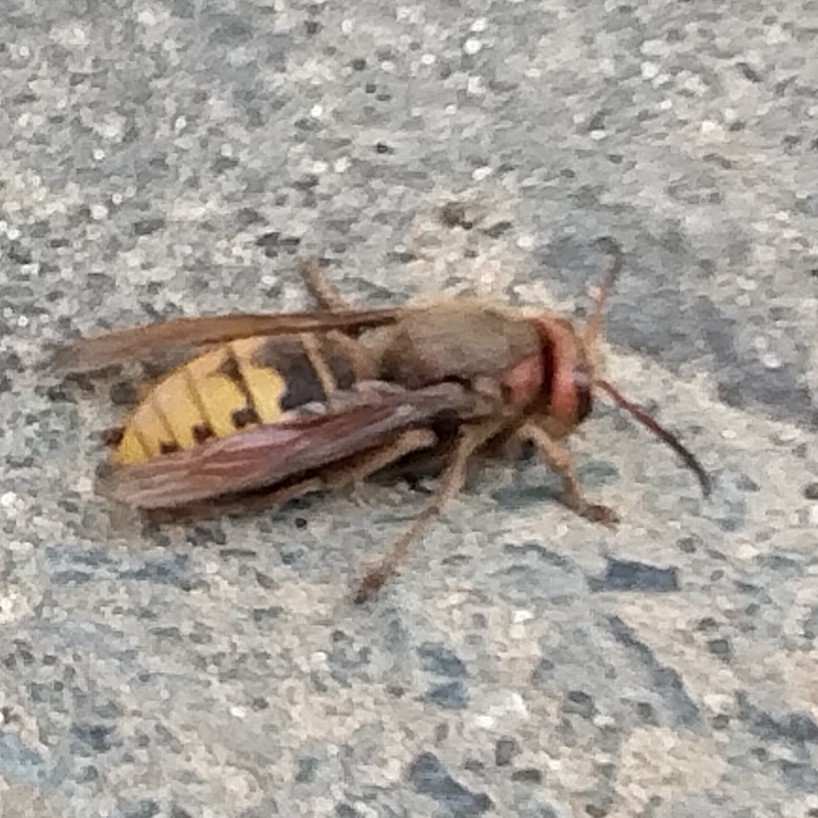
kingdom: Animalia
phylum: Arthropoda
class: Insecta
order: Hymenoptera
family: Vespidae
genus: Vespa
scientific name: Vespa crabro
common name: Hornet
